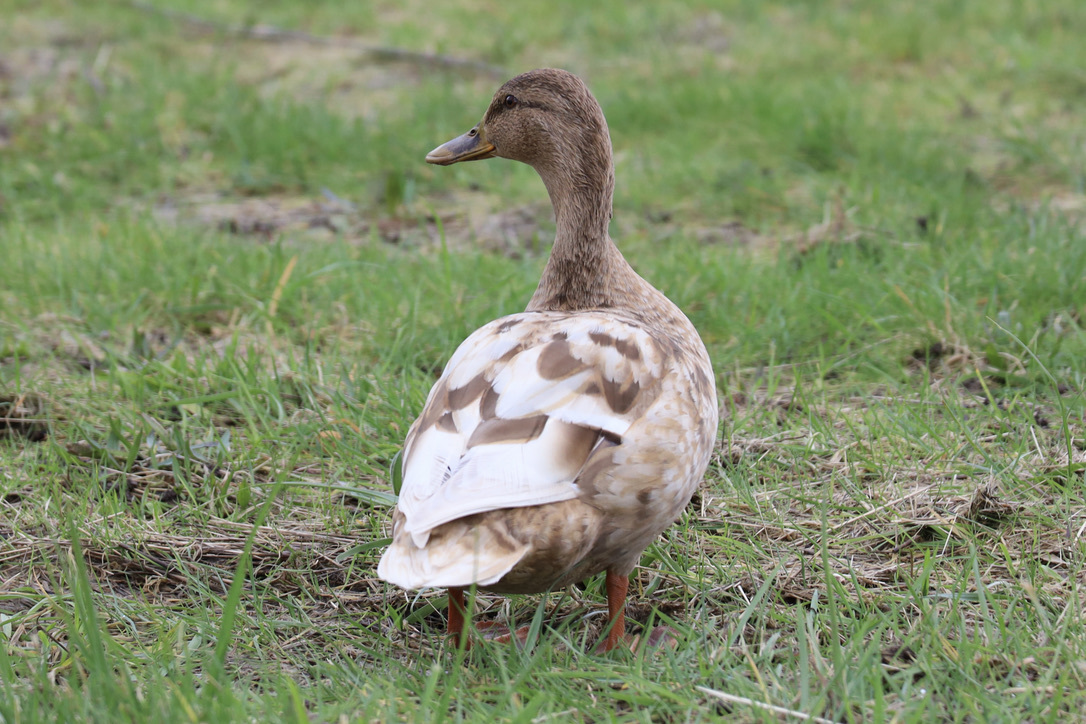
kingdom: Animalia
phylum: Chordata
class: Aves
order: Anseriformes
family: Anatidae
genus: Anas
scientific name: Anas platyrhynchos
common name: Mallard
